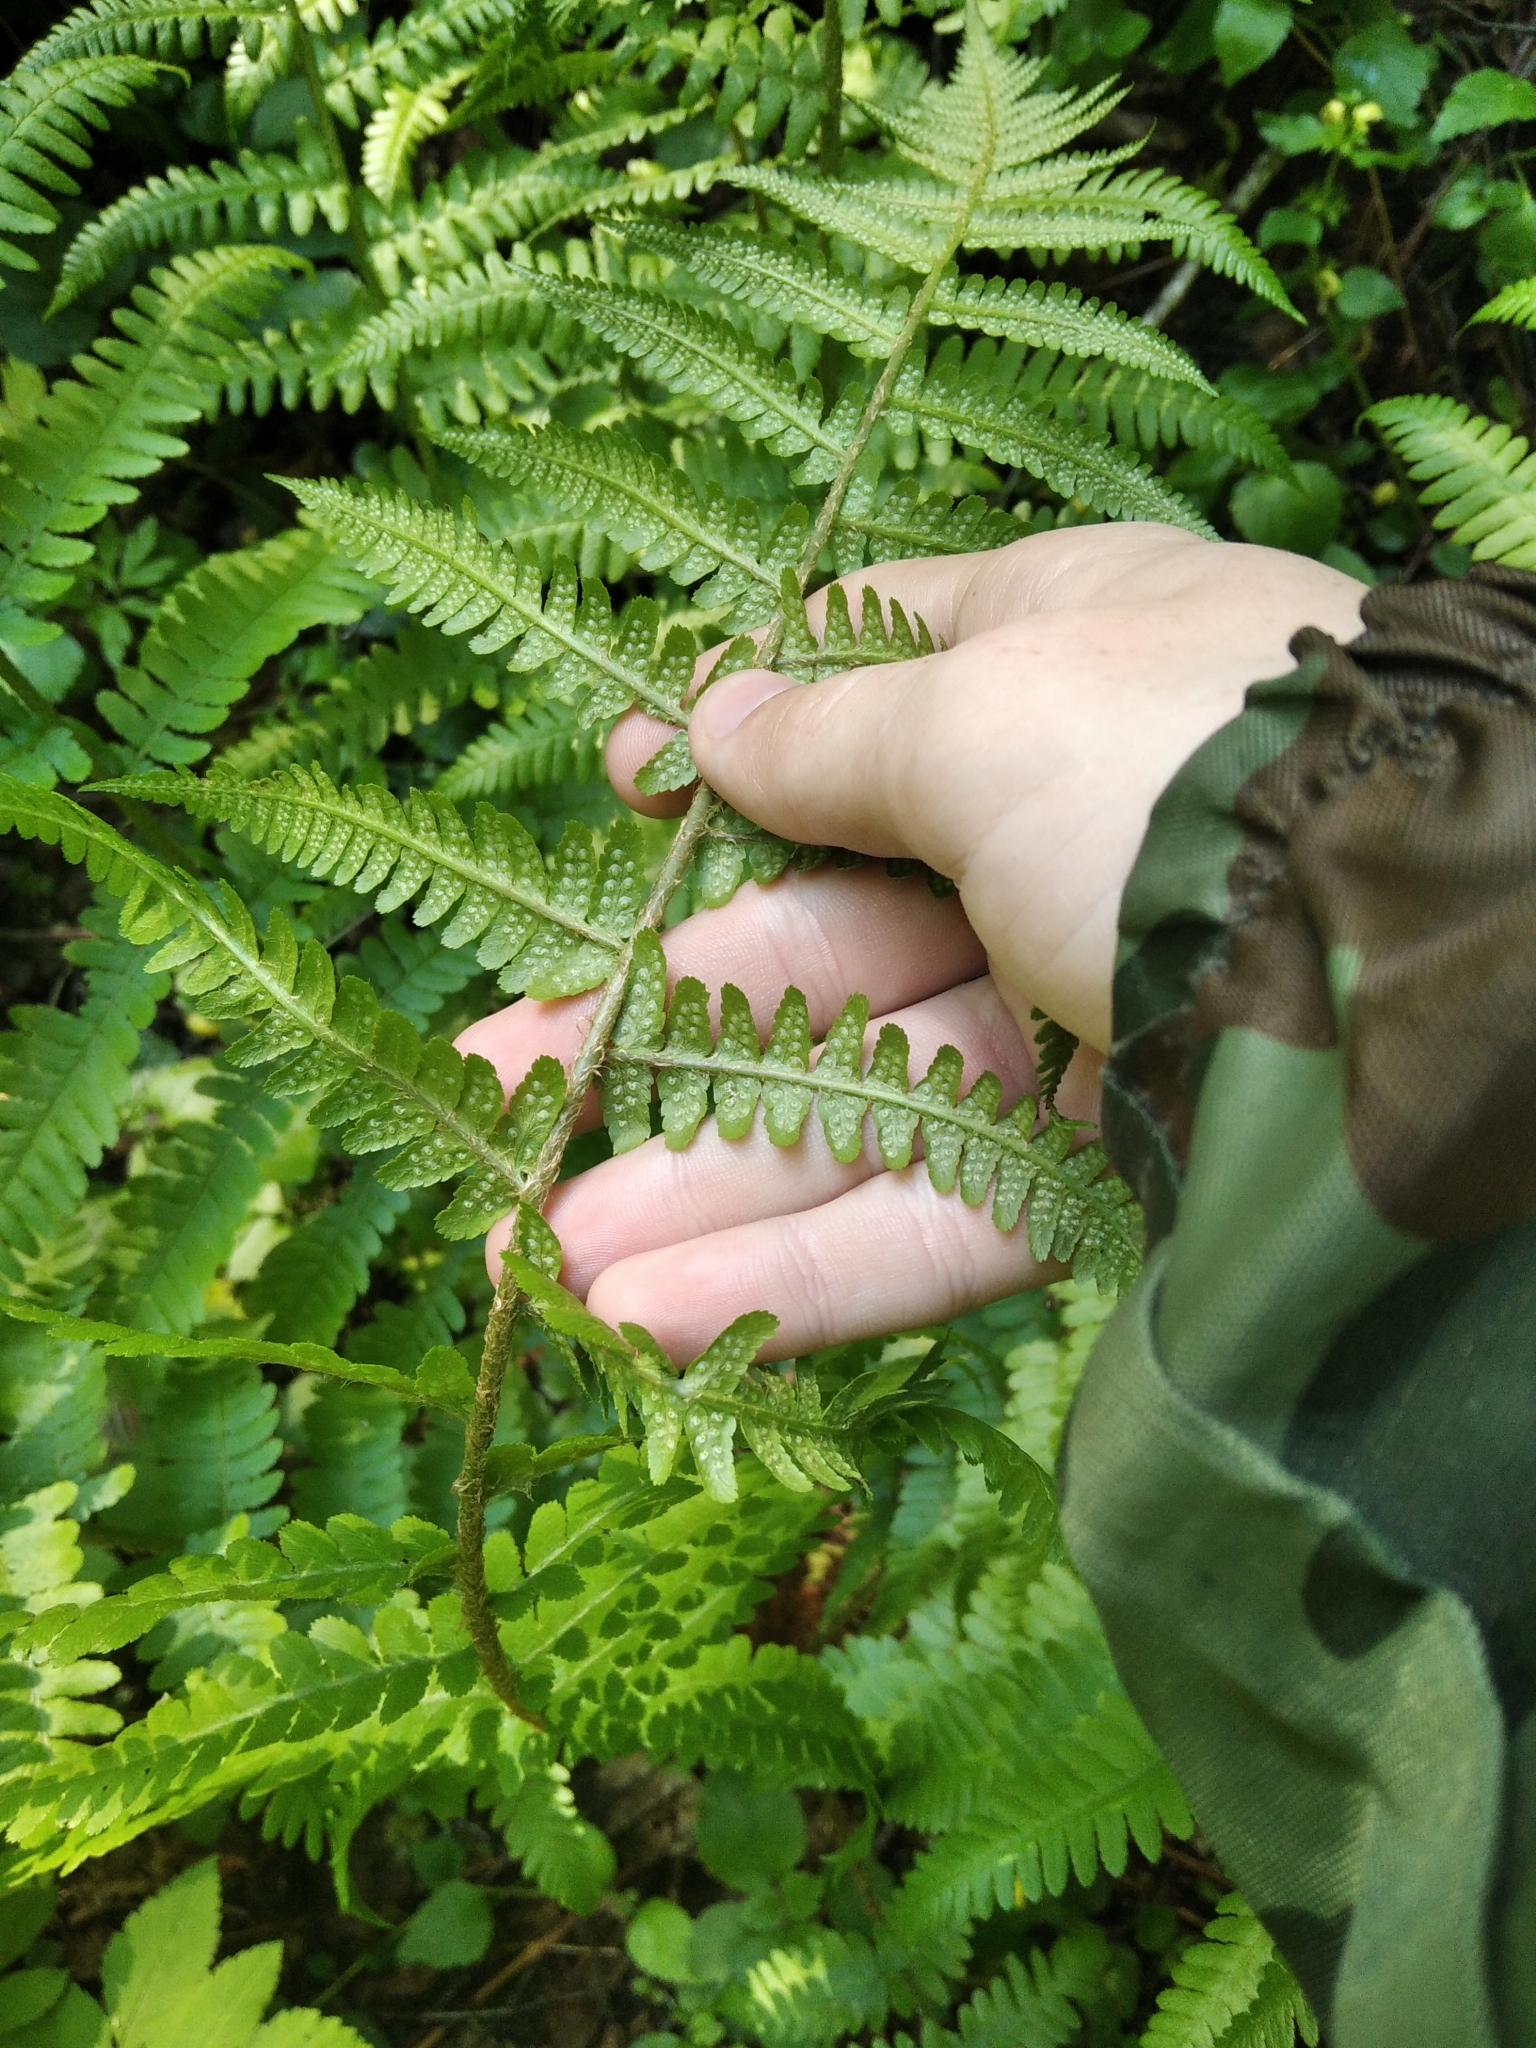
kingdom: Plantae
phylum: Tracheophyta
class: Polypodiopsida
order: Polypodiales
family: Dryopteridaceae
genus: Dryopteris
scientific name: Dryopteris filix-mas
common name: Male fern
